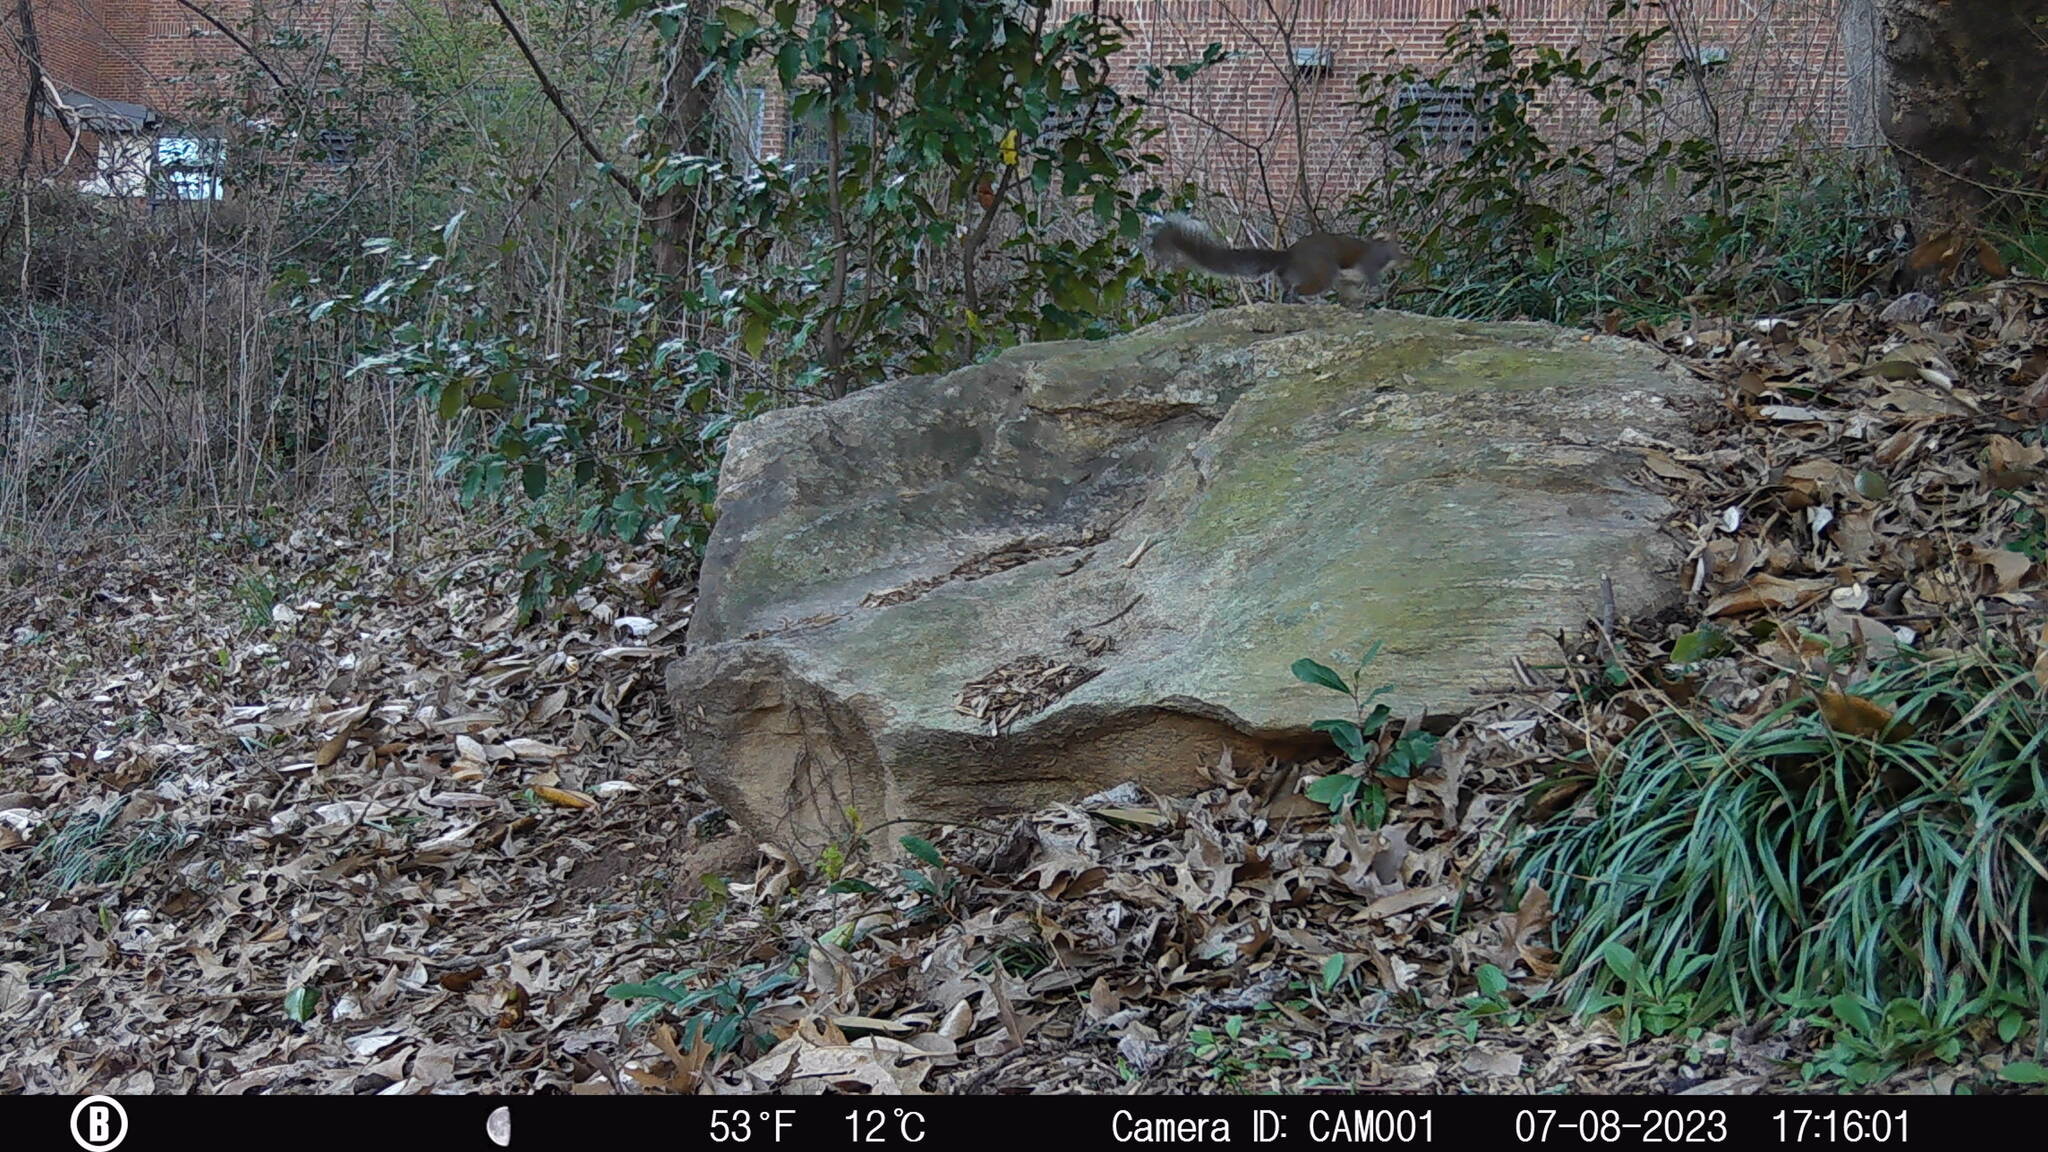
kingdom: Animalia
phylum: Chordata
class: Mammalia
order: Rodentia
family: Sciuridae
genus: Sciurus
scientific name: Sciurus carolinensis
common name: Eastern gray squirrel
